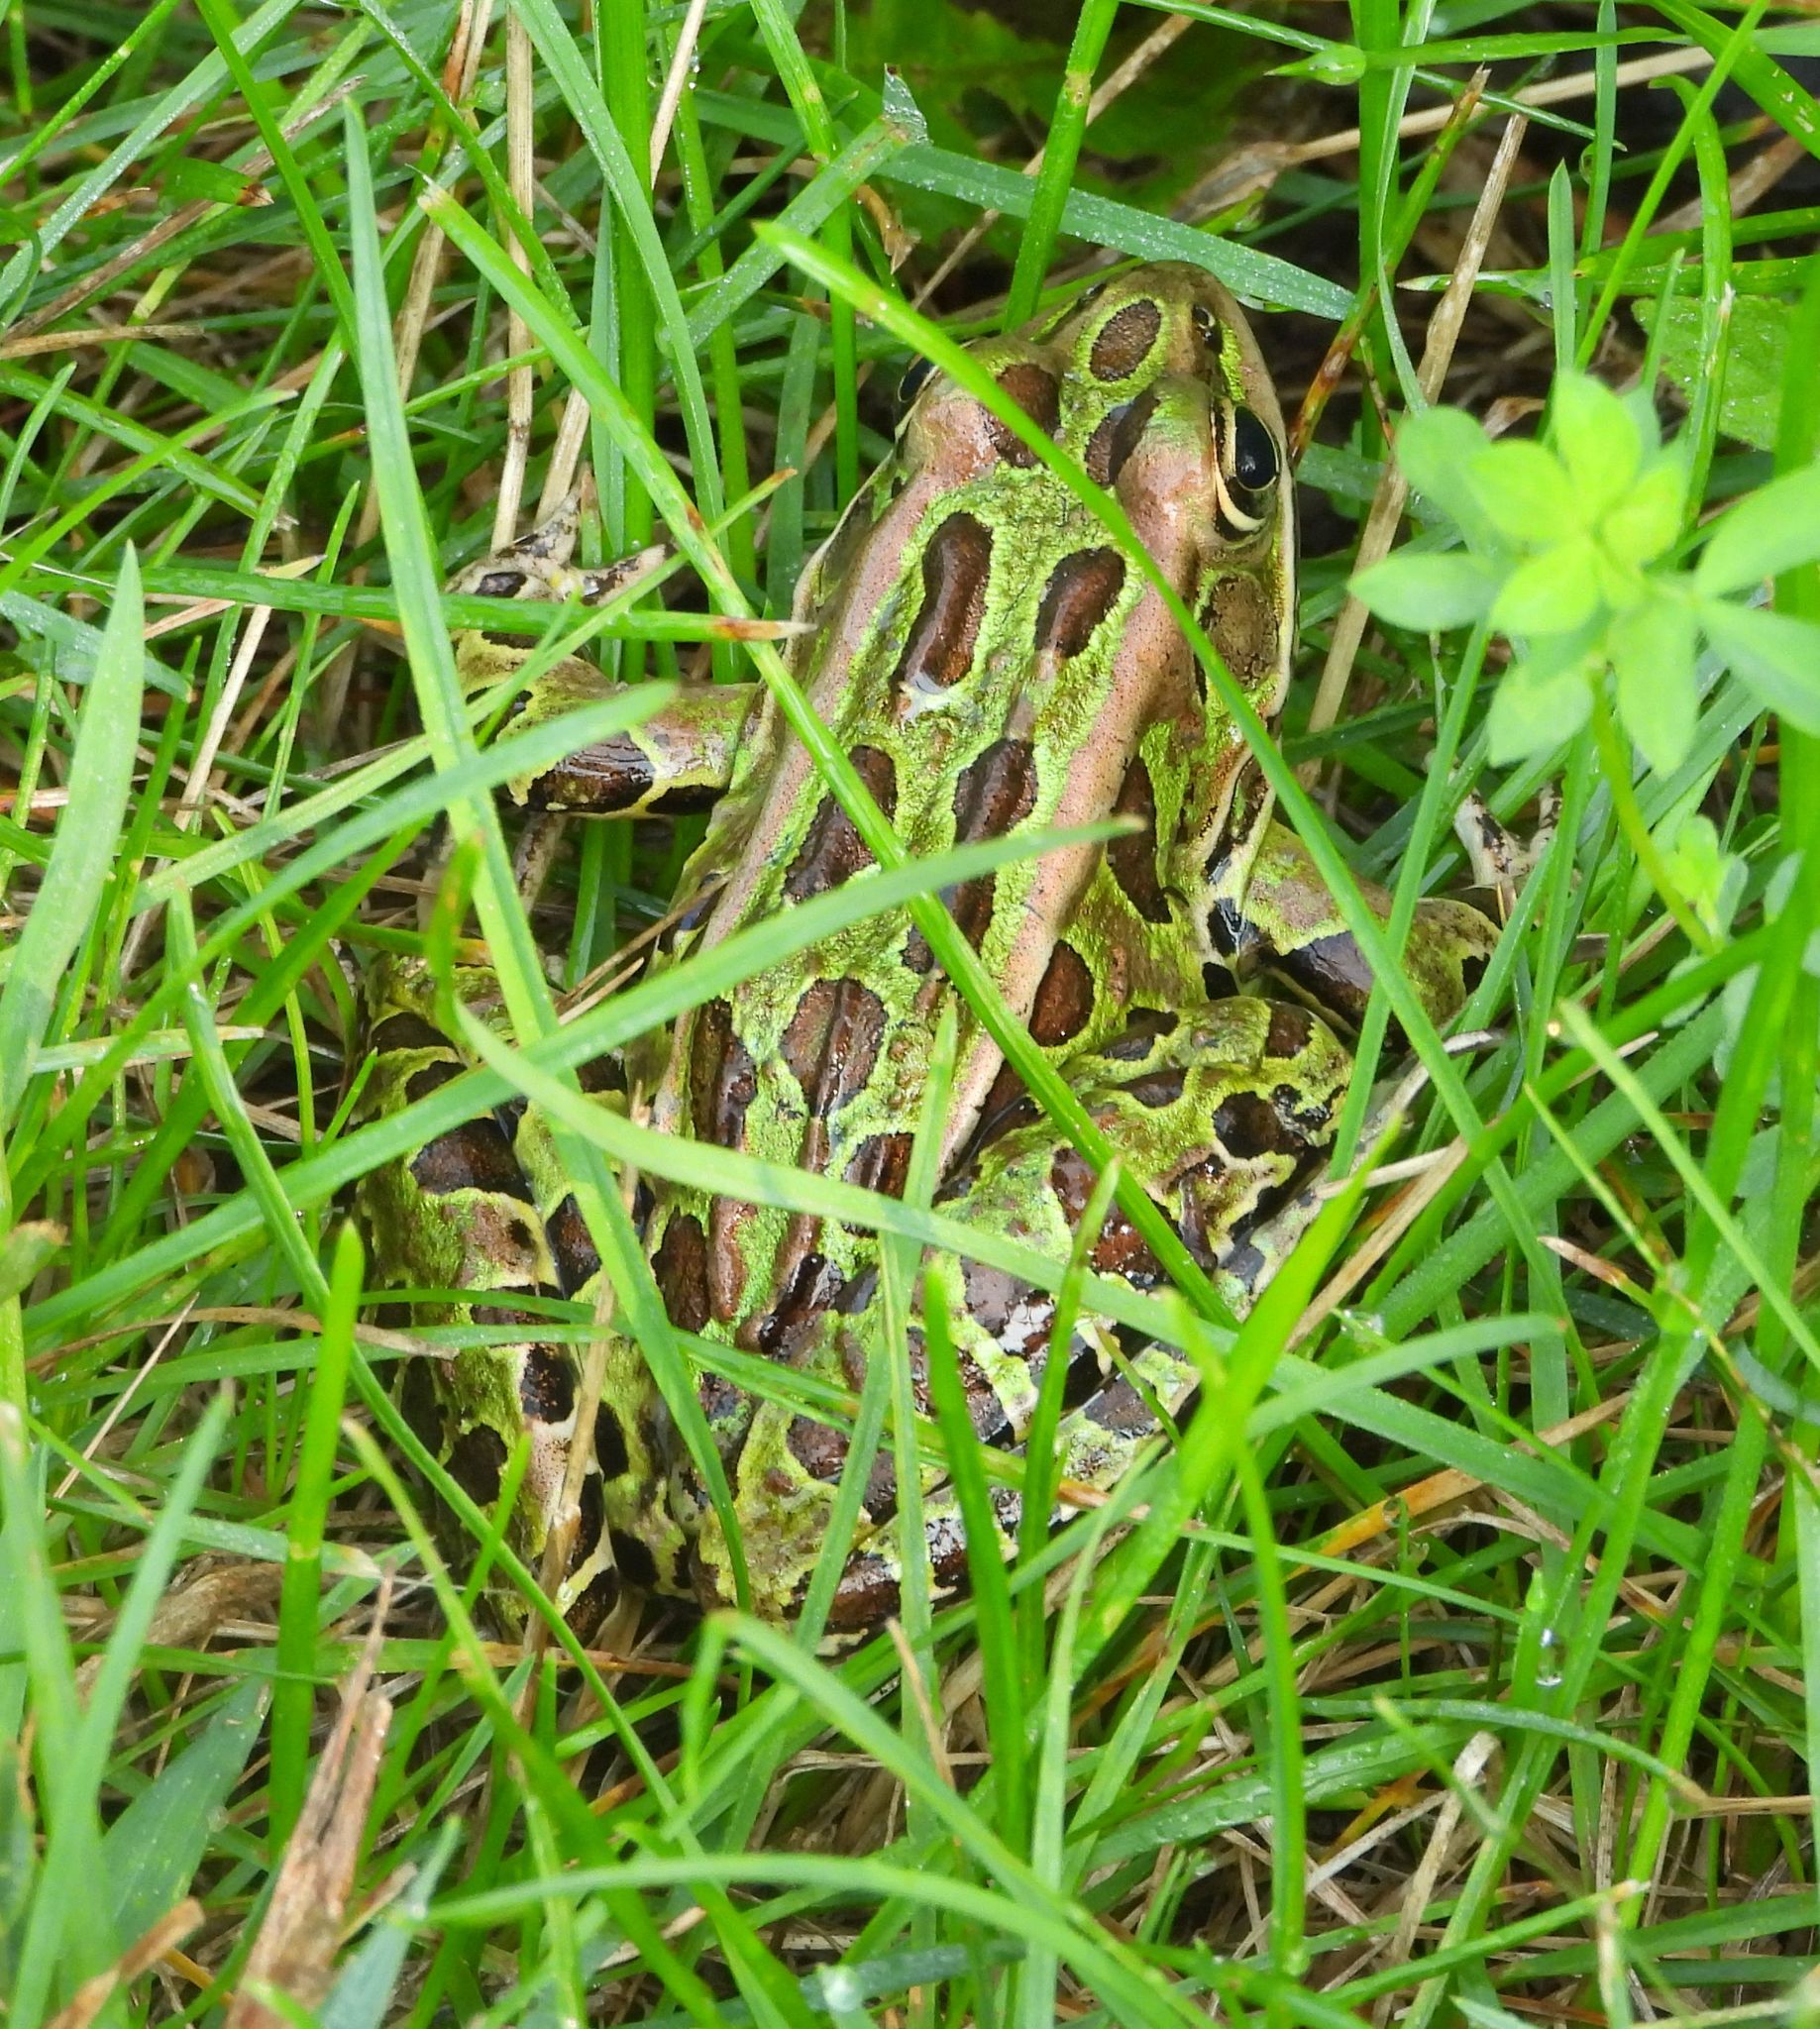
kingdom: Animalia
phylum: Chordata
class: Amphibia
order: Anura
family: Ranidae
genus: Lithobates
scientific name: Lithobates pipiens
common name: Northern leopard frog
